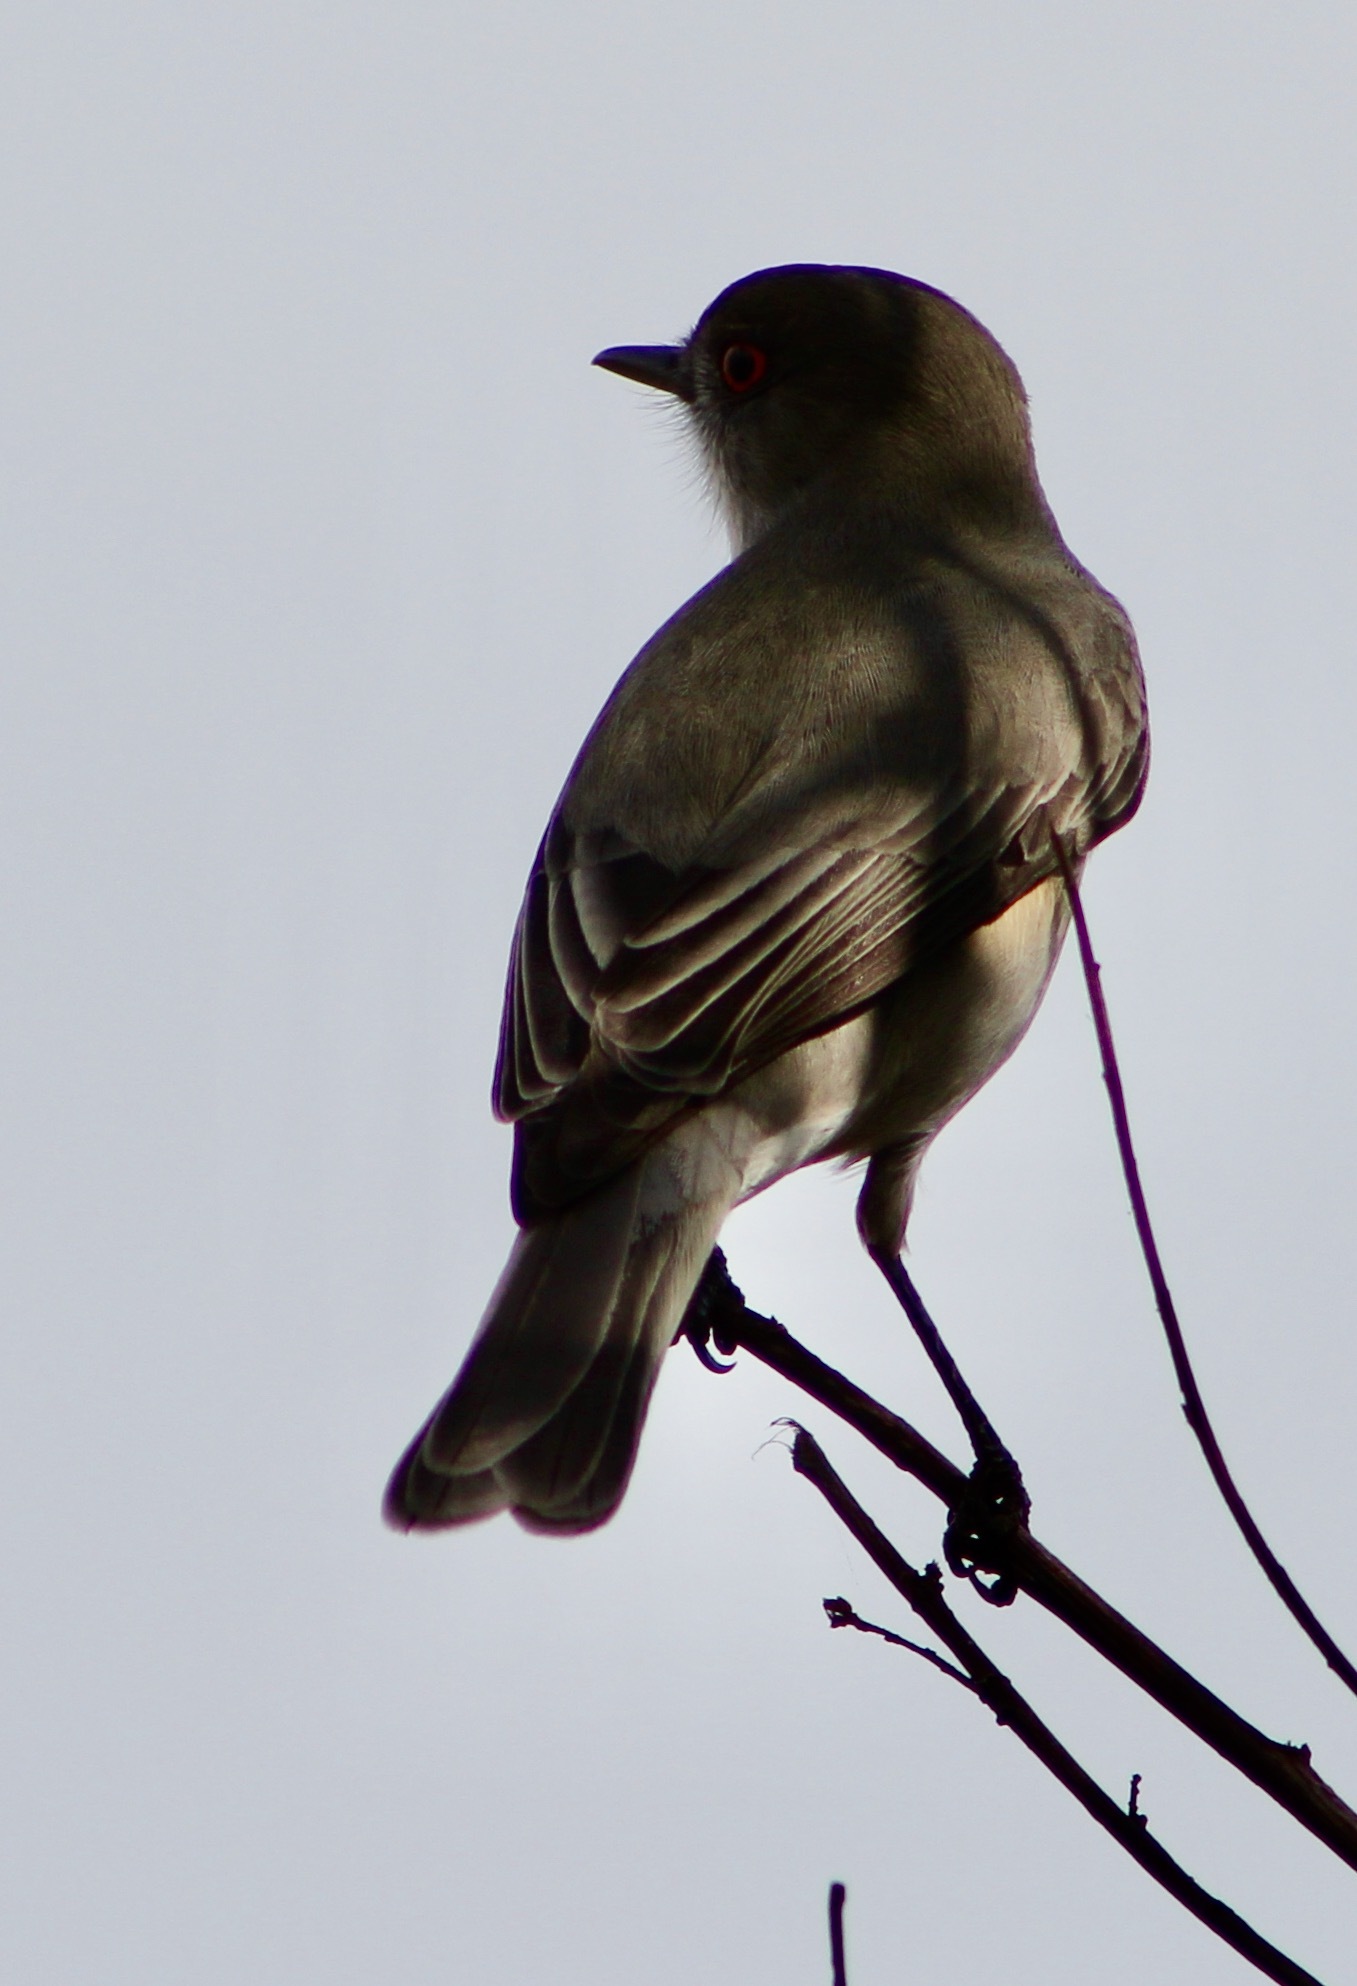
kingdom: Animalia
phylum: Chordata
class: Aves
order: Passeriformes
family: Tyrannidae
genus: Xolmis
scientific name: Xolmis pyrope
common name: Fire-eyed diucon
